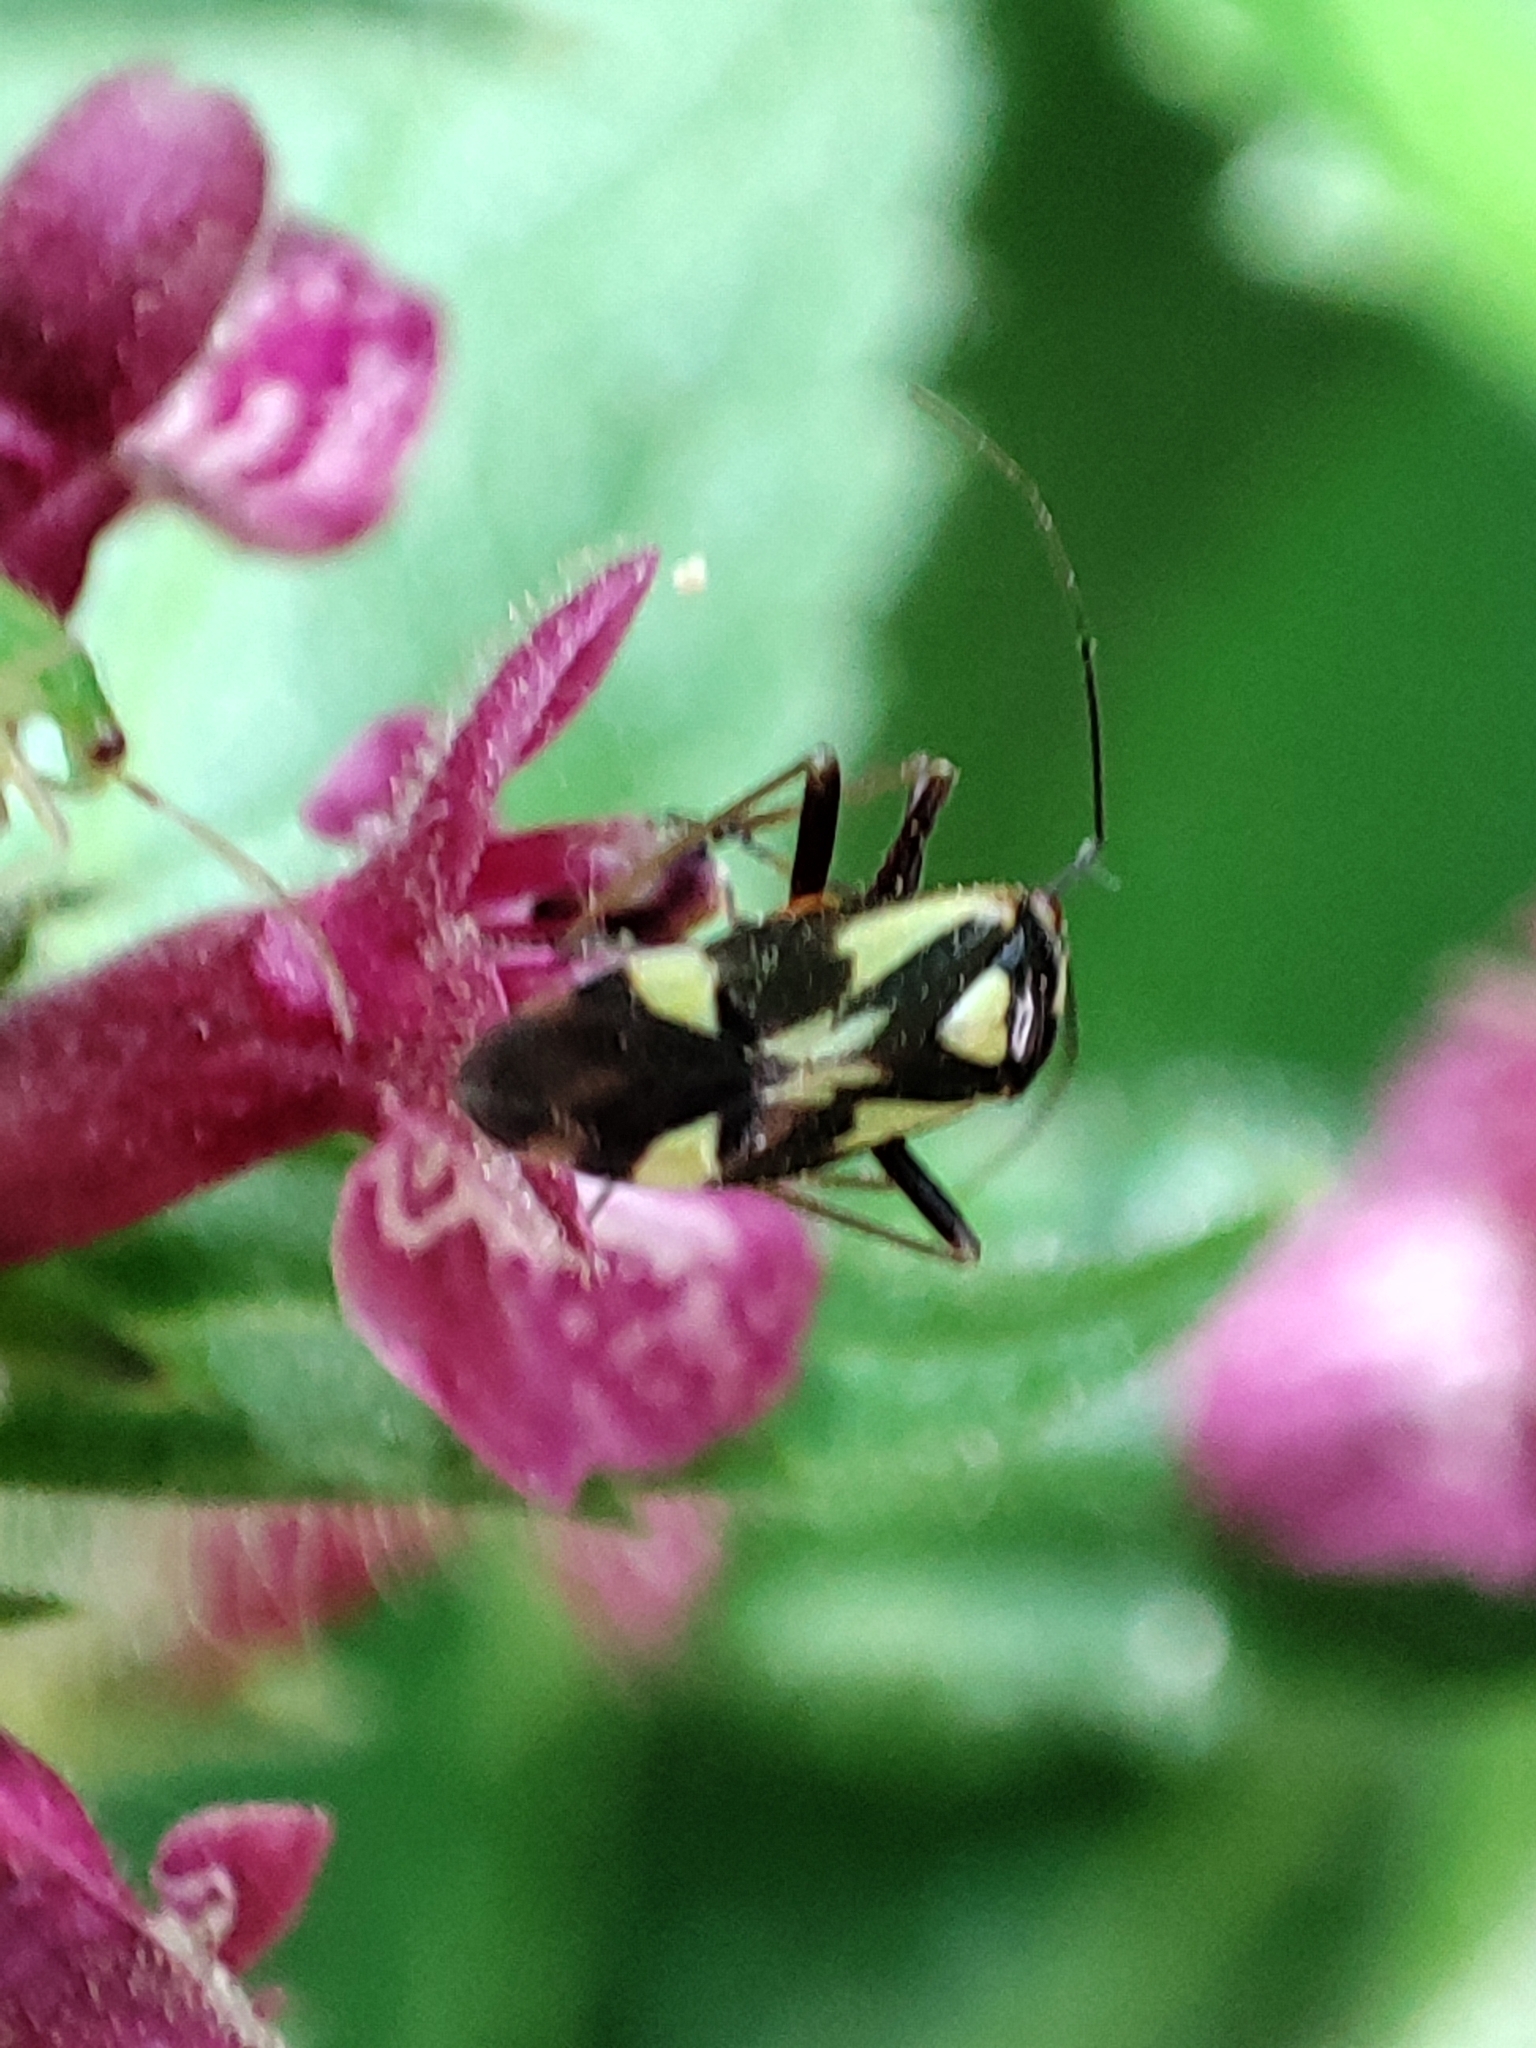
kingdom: Animalia
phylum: Arthropoda
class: Insecta
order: Hemiptera
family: Miridae
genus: Grypocoris
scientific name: Grypocoris sexguttatus
